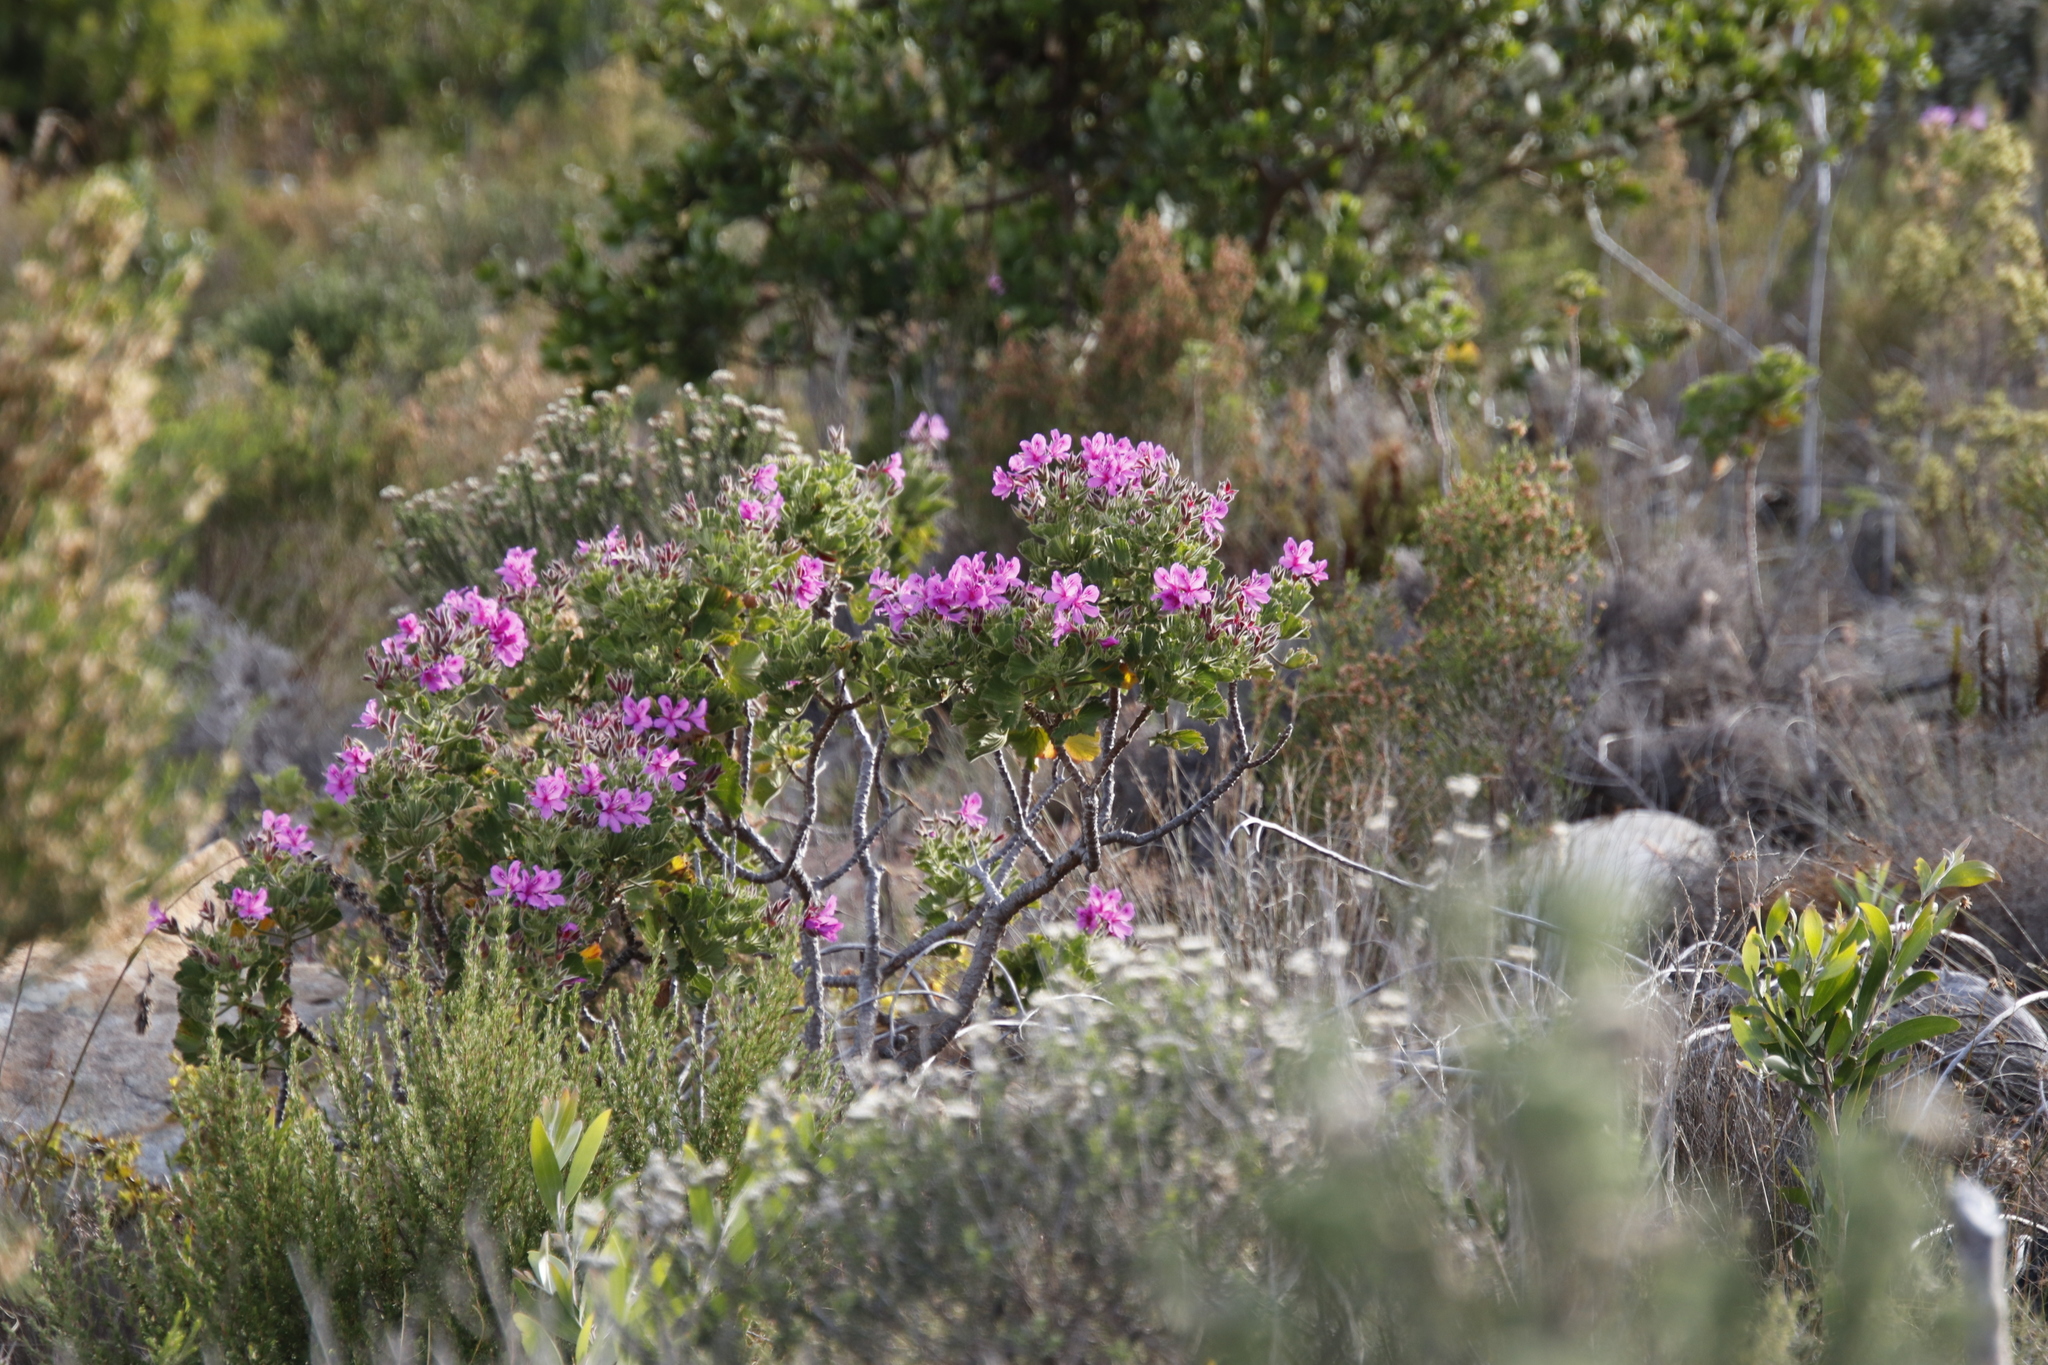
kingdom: Plantae
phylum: Tracheophyta
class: Magnoliopsida
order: Geraniales
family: Geraniaceae
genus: Pelargonium
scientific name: Pelargonium cucullatum
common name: Tree pelargonium
